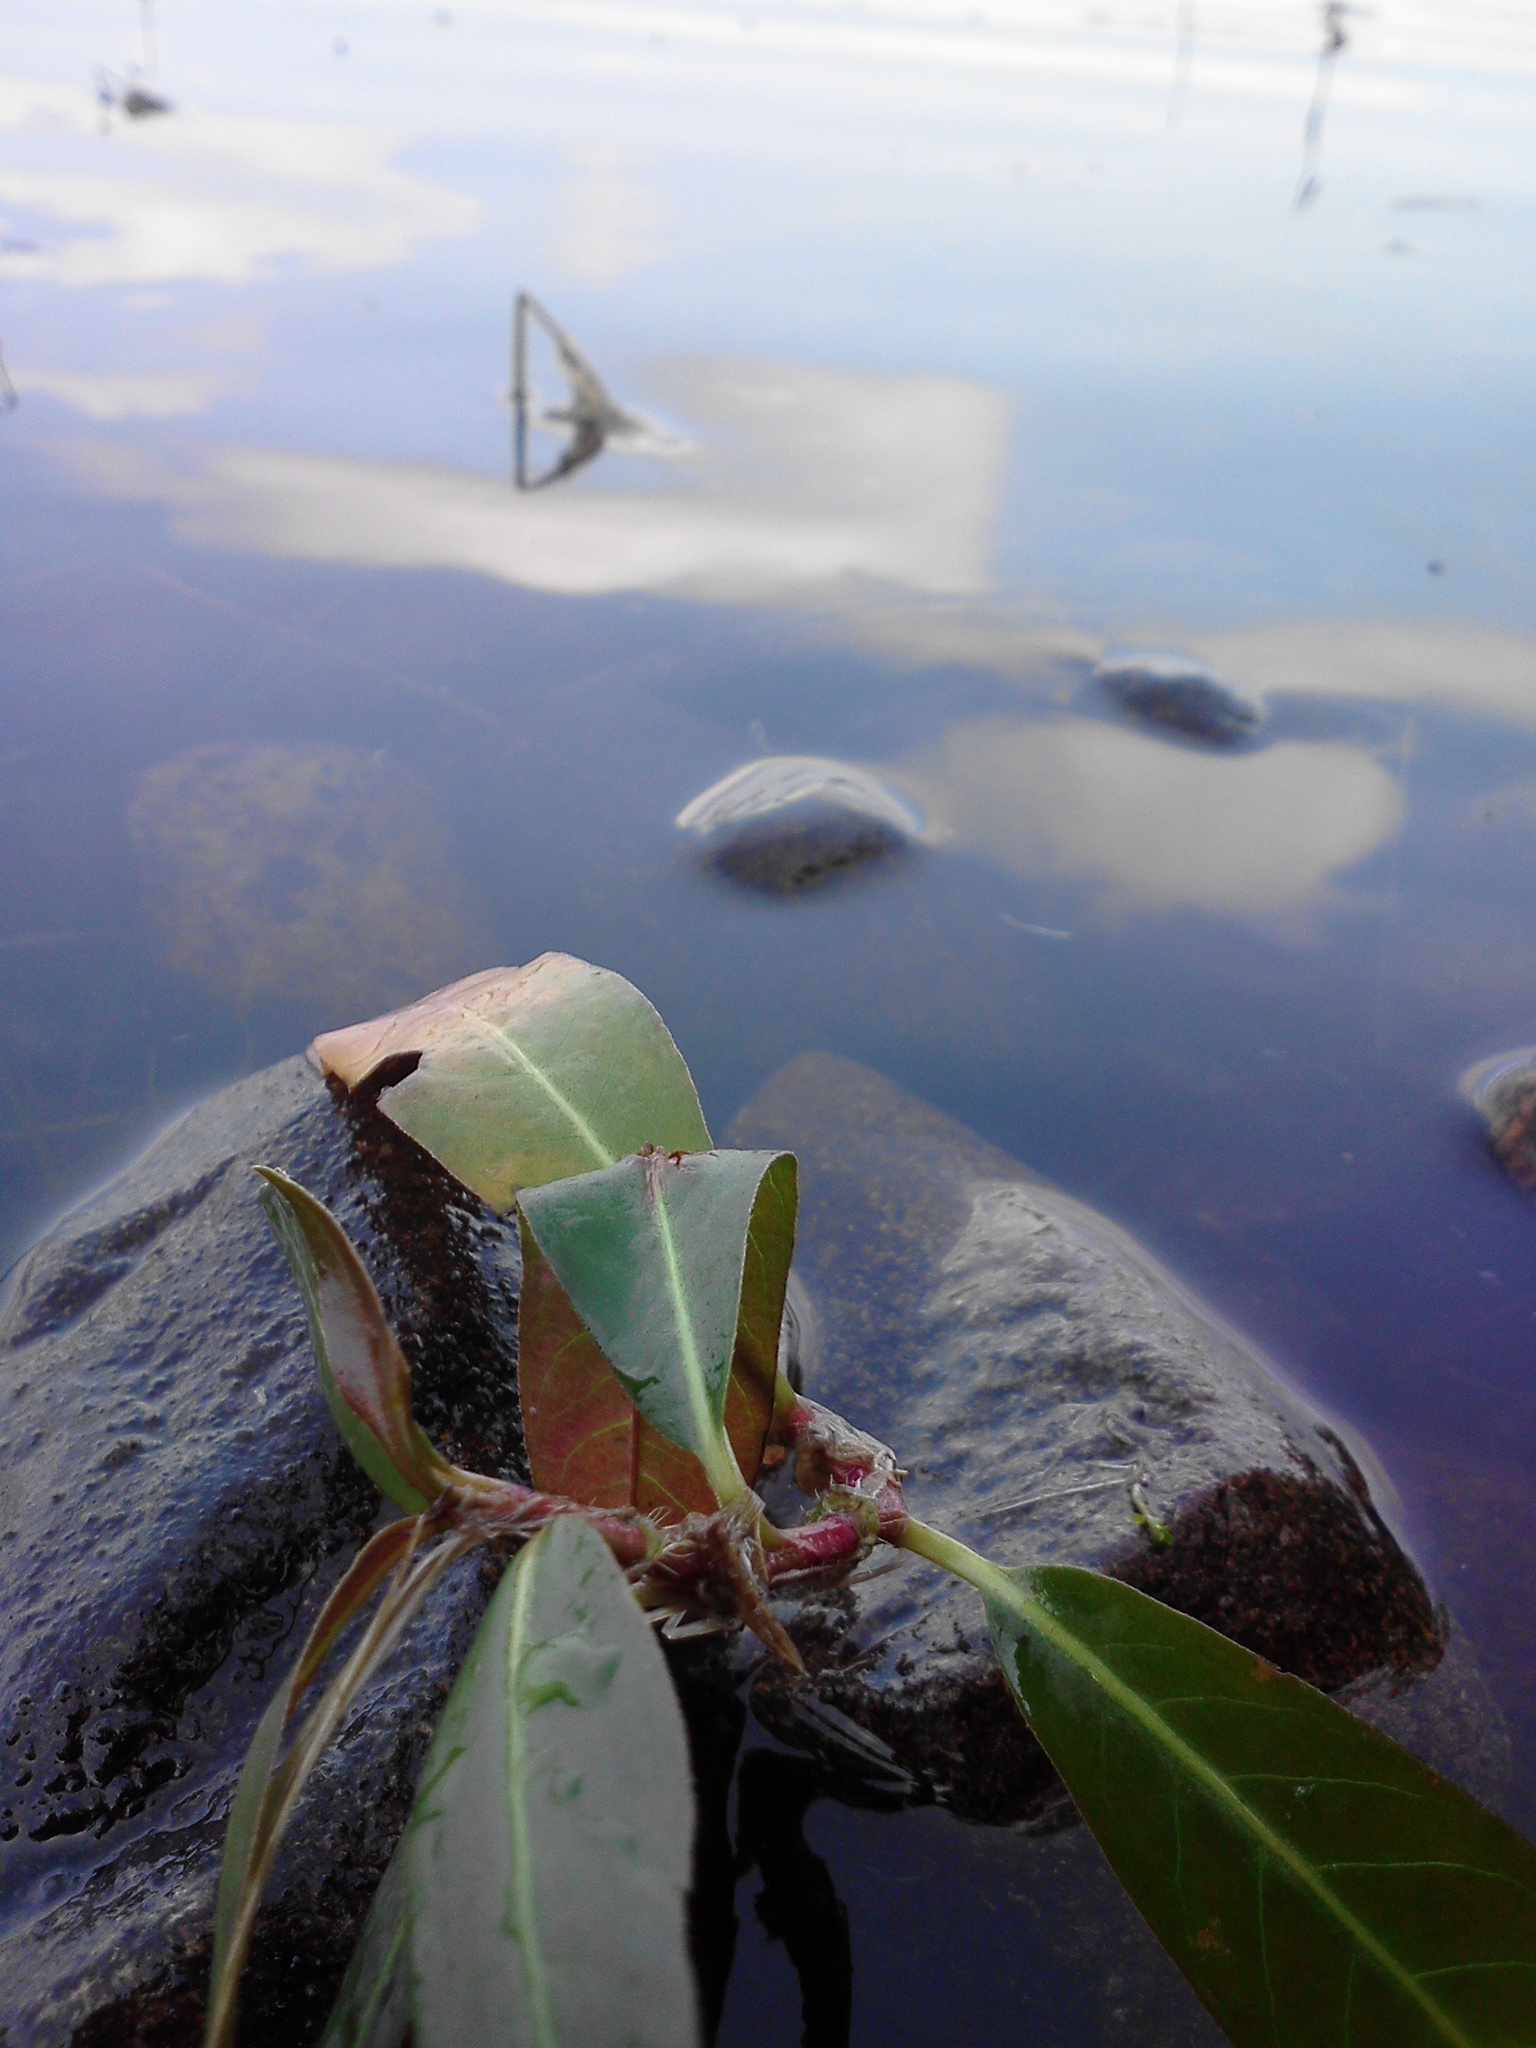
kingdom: Plantae
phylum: Tracheophyta
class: Magnoliopsida
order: Caryophyllales
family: Polygonaceae
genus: Persicaria
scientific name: Persicaria amphibia
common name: Amphibious bistort
